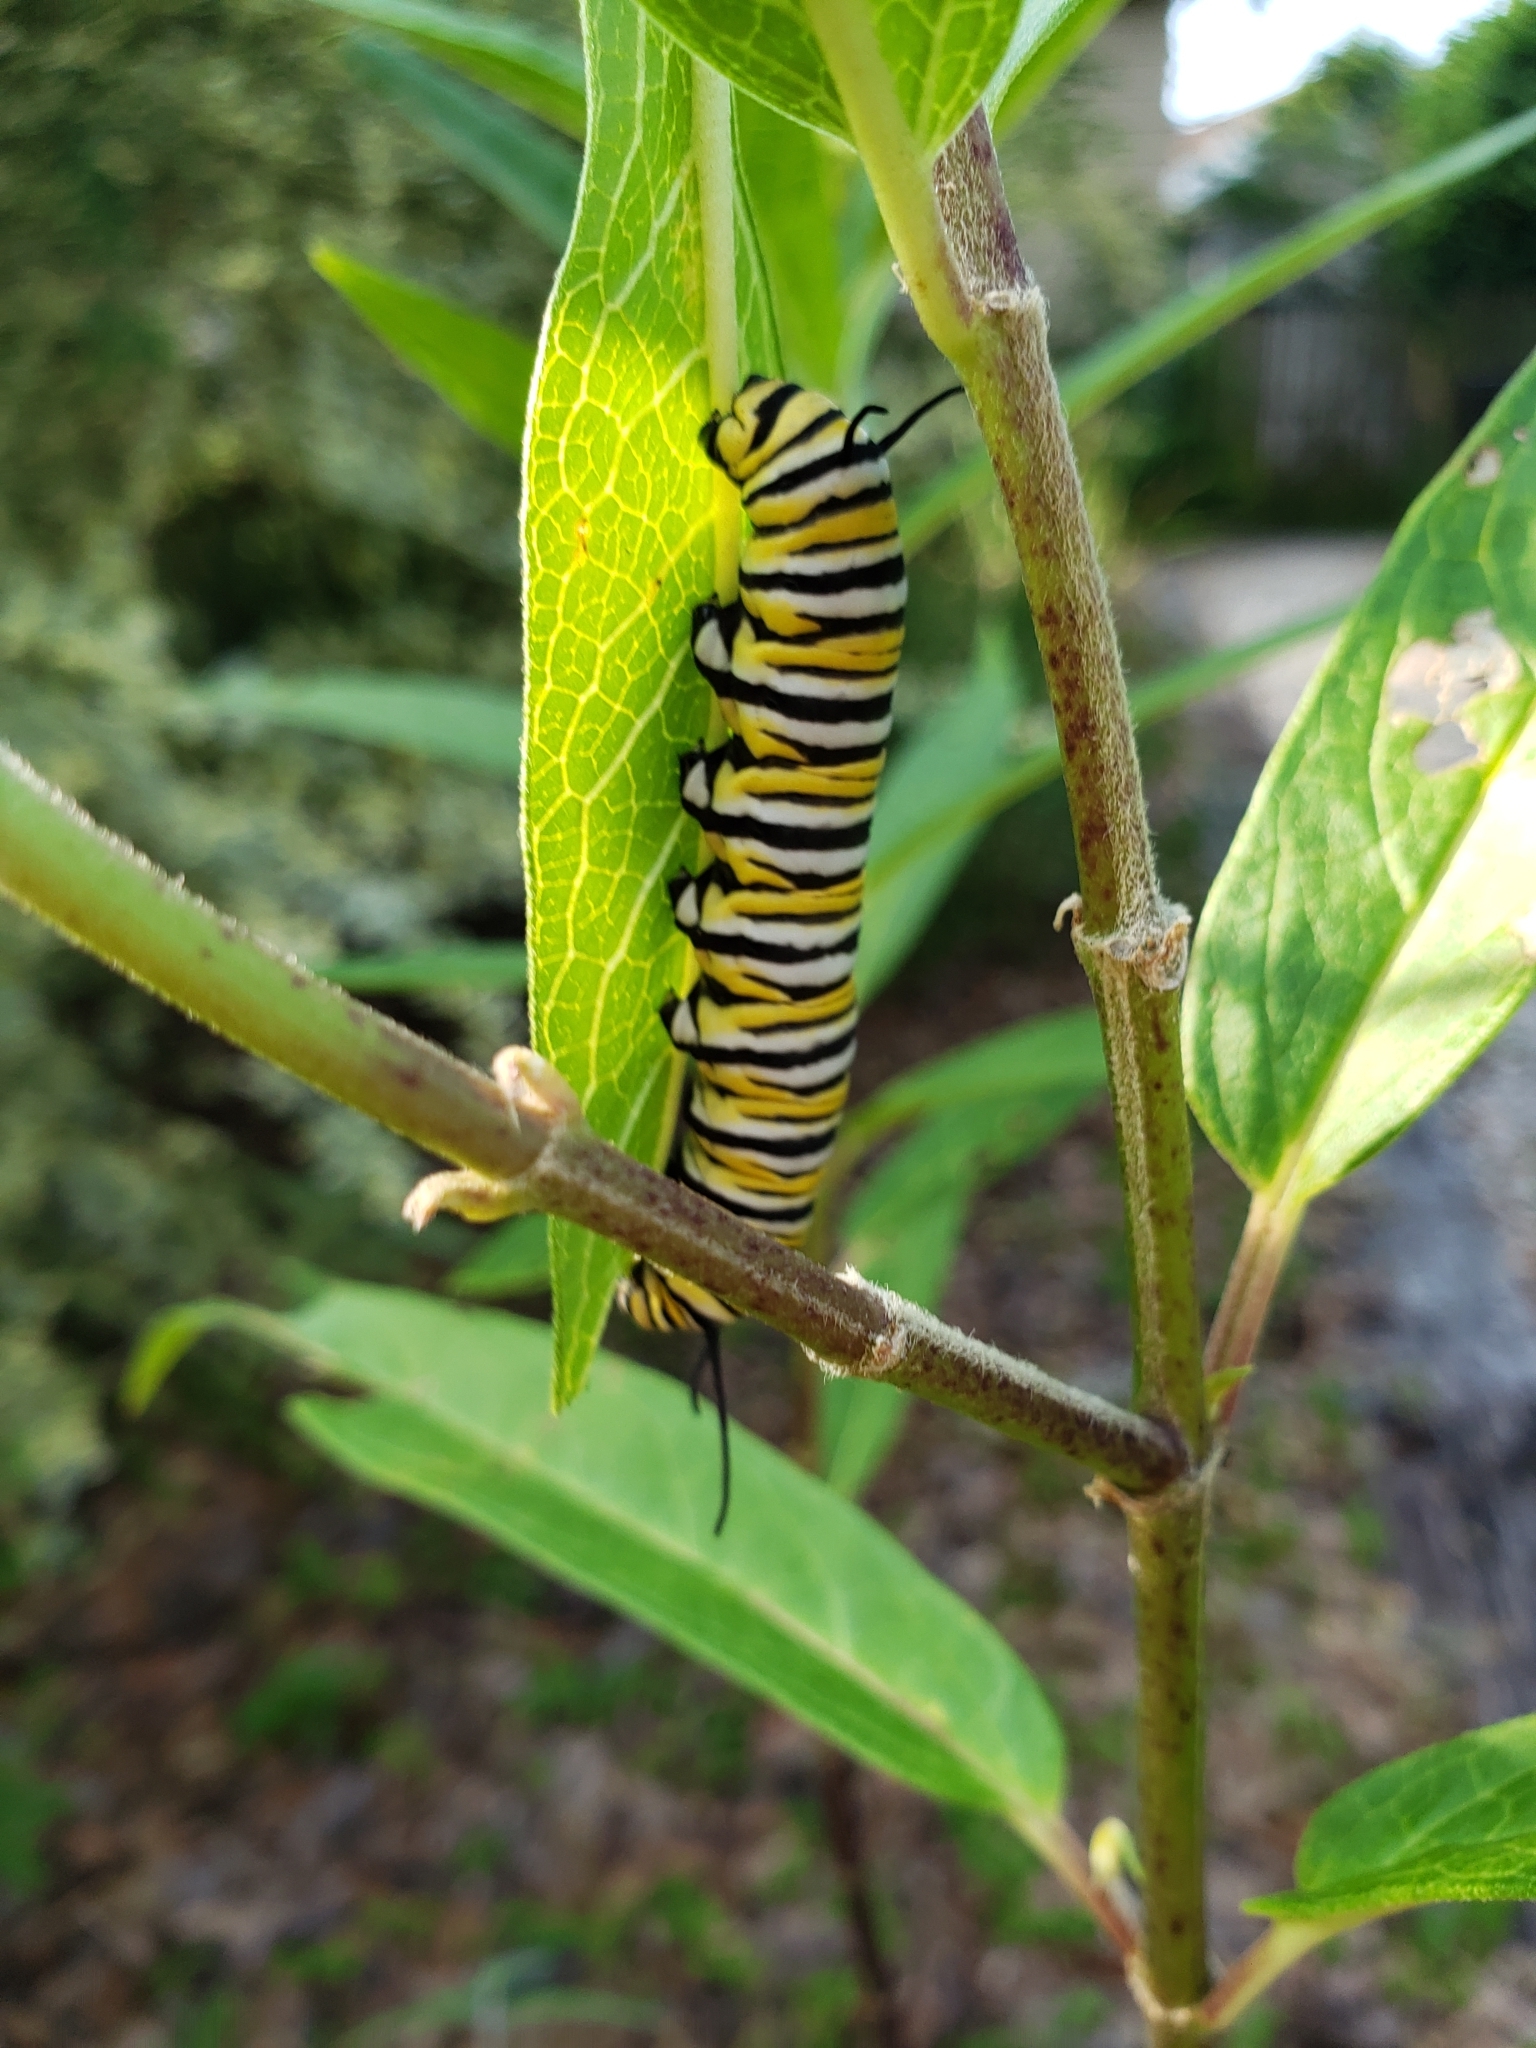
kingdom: Animalia
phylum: Arthropoda
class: Insecta
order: Lepidoptera
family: Nymphalidae
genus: Danaus
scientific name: Danaus plexippus
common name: Monarch
